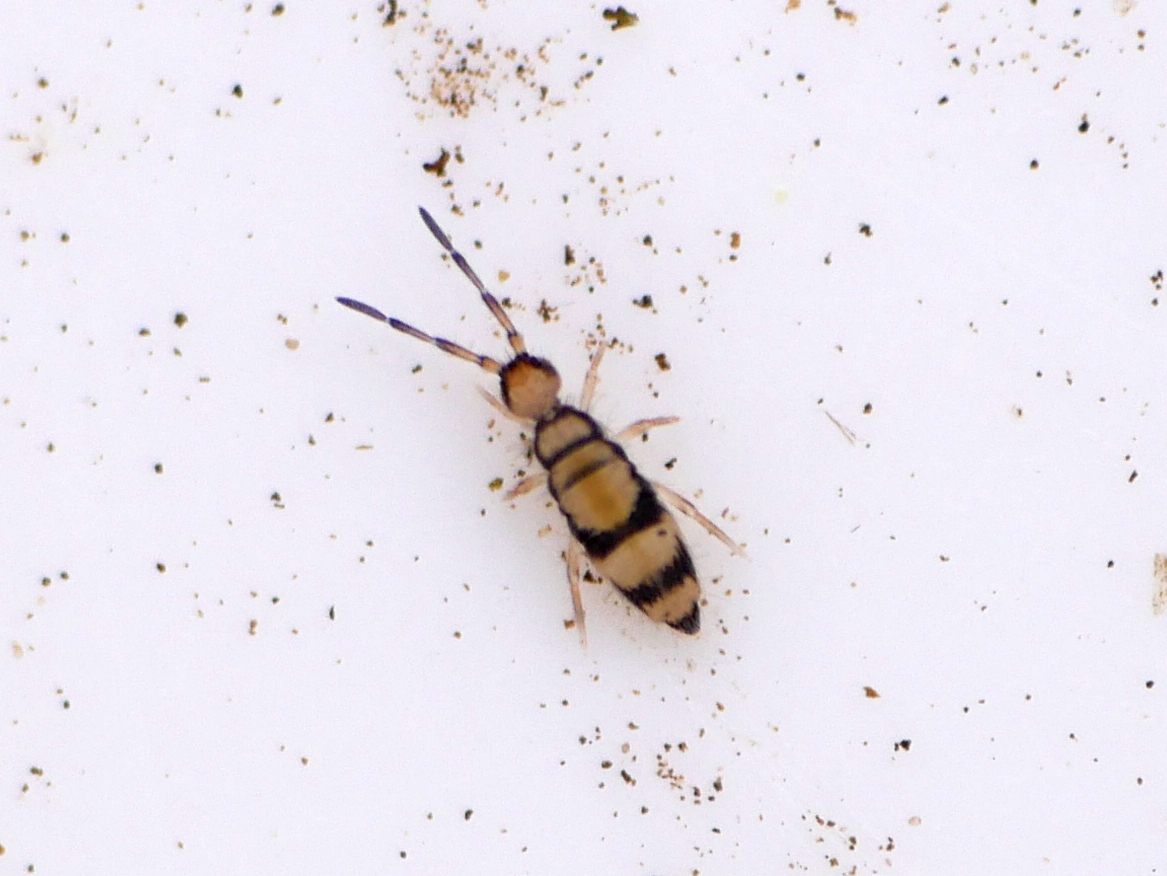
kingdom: Animalia
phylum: Arthropoda
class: Collembola
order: Entomobryomorpha
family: Entomobryidae
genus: Entomobrya
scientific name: Entomobrya corticalis
